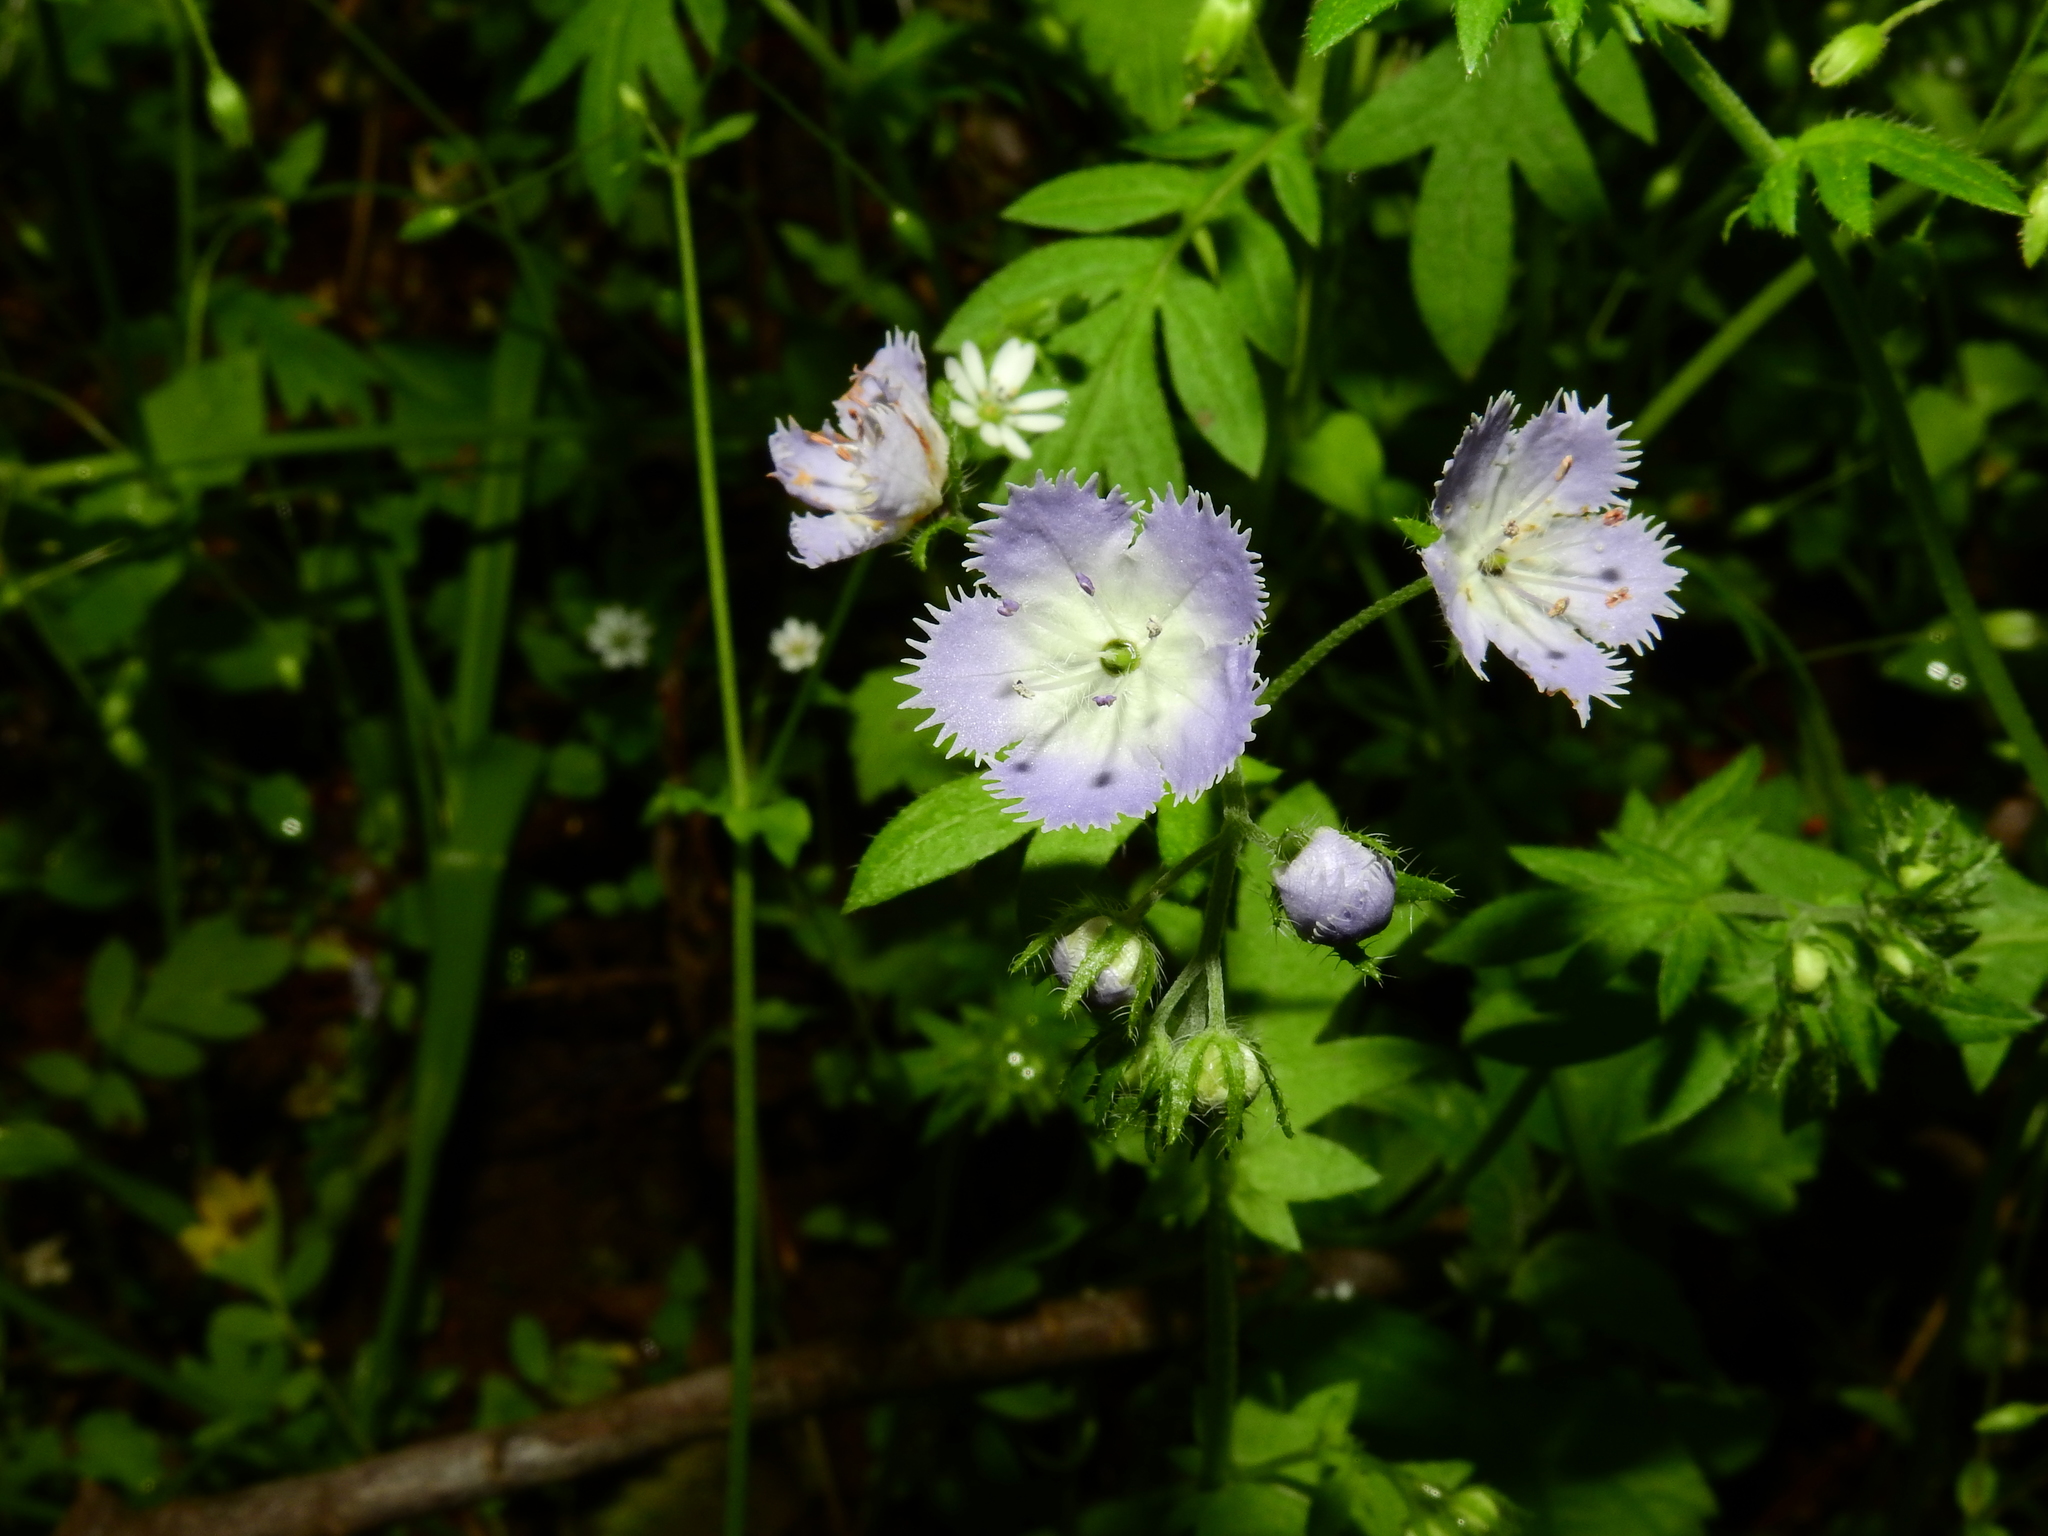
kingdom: Plantae
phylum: Tracheophyta
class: Magnoliopsida
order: Boraginales
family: Hydrophyllaceae
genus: Phacelia
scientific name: Phacelia purshii
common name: Miami-mist
